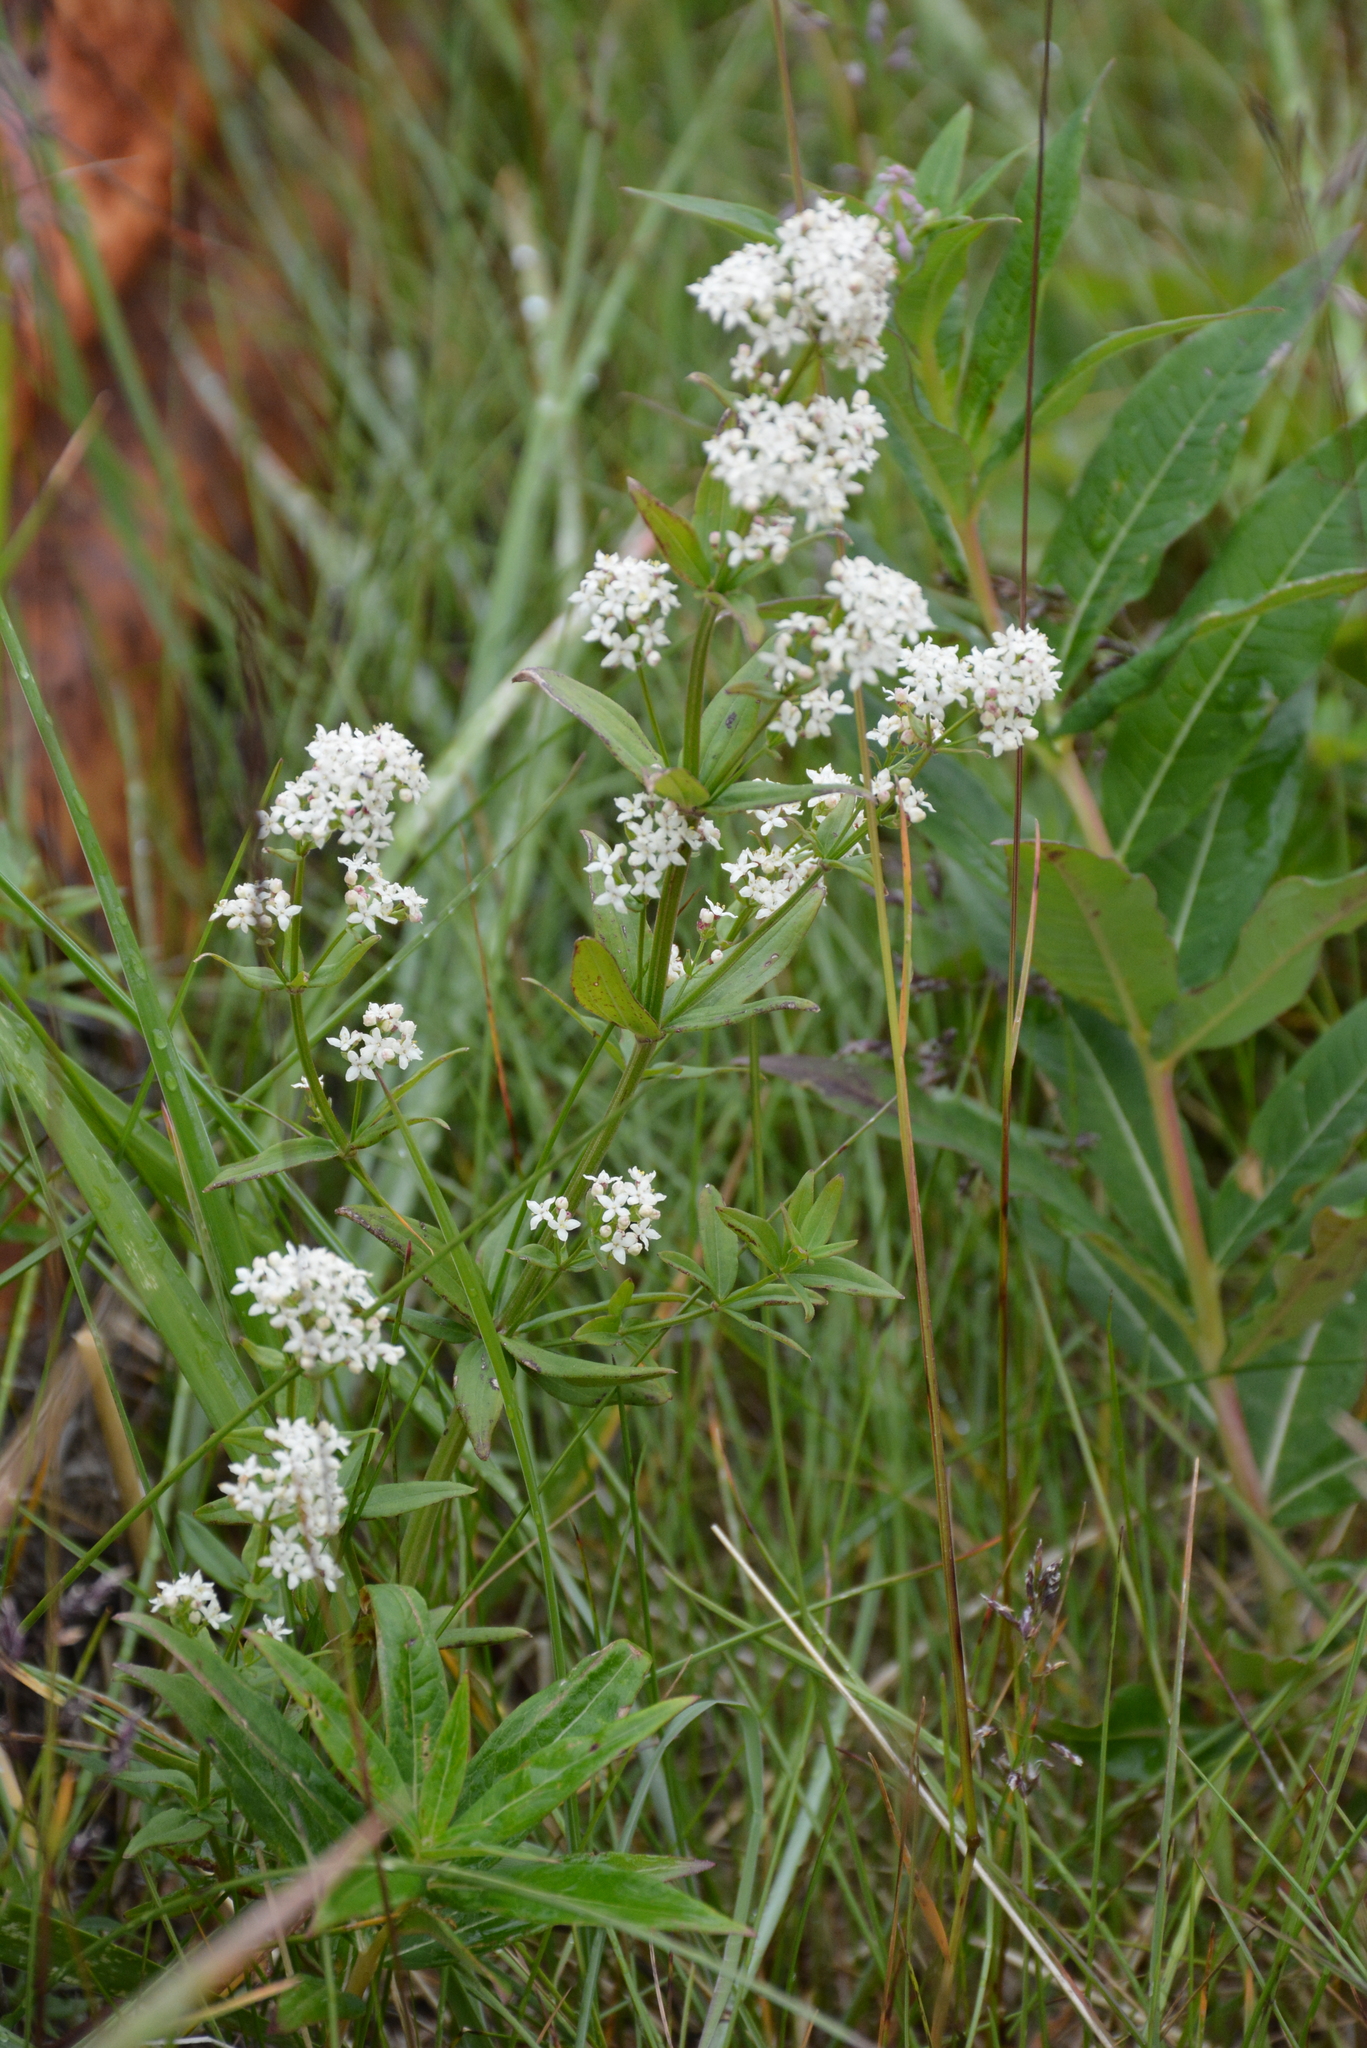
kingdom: Plantae
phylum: Tracheophyta
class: Magnoliopsida
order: Gentianales
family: Rubiaceae
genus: Galium
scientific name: Galium boreale
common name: Northern bedstraw
